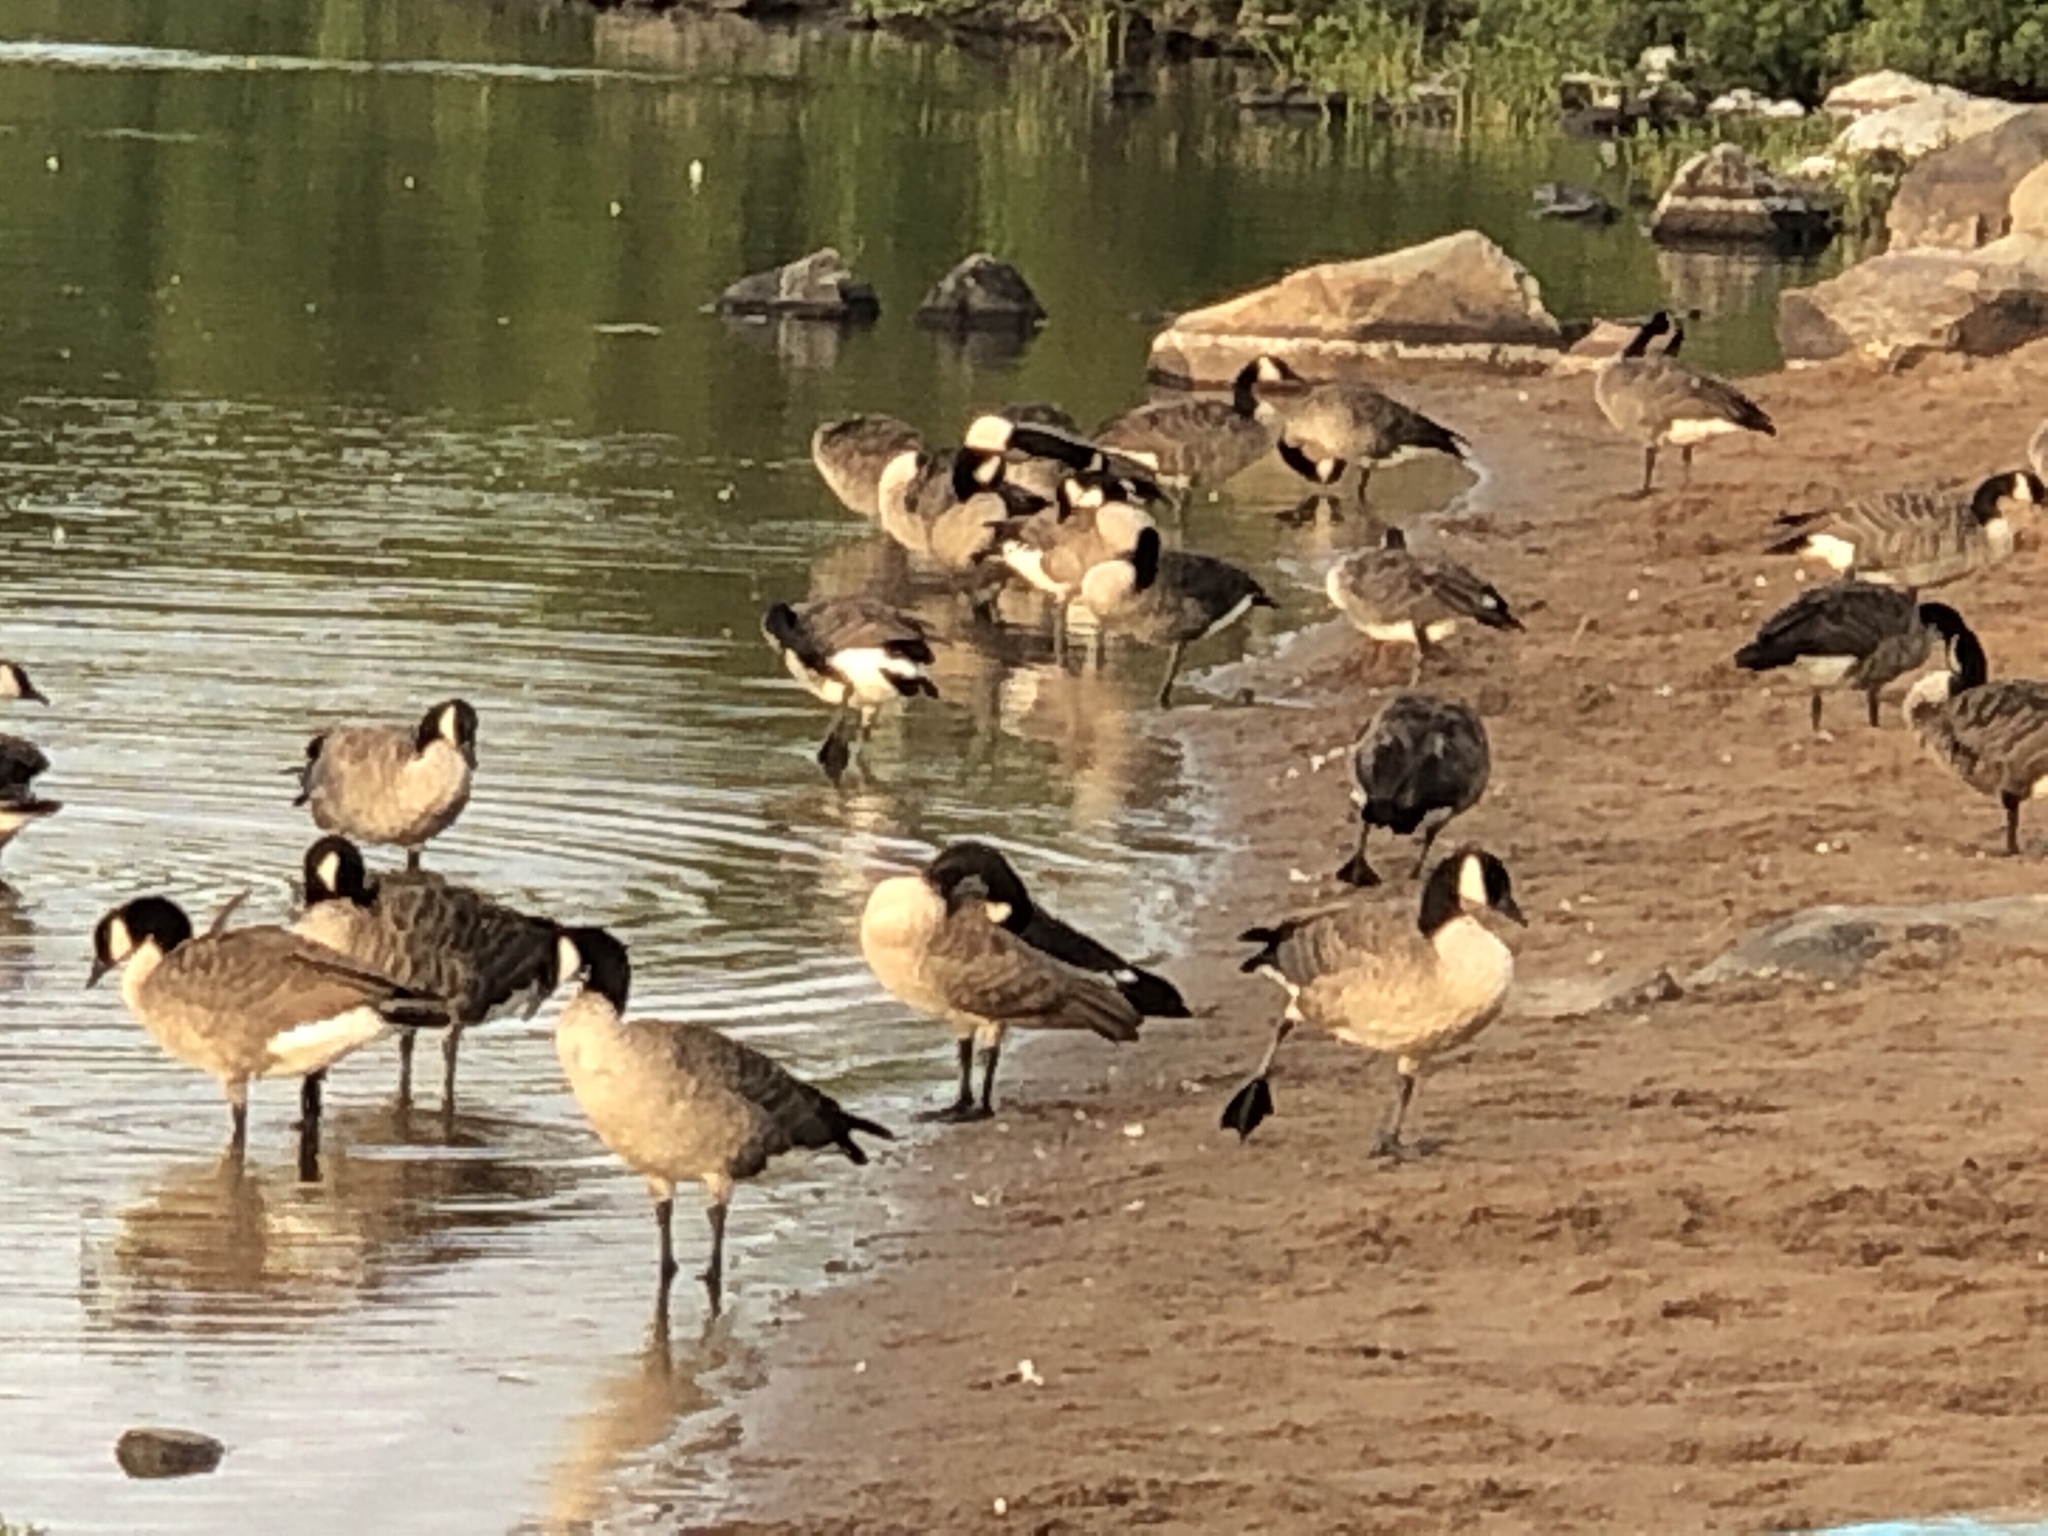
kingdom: Animalia
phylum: Chordata
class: Aves
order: Anseriformes
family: Anatidae
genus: Branta
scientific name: Branta canadensis
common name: Canada goose
